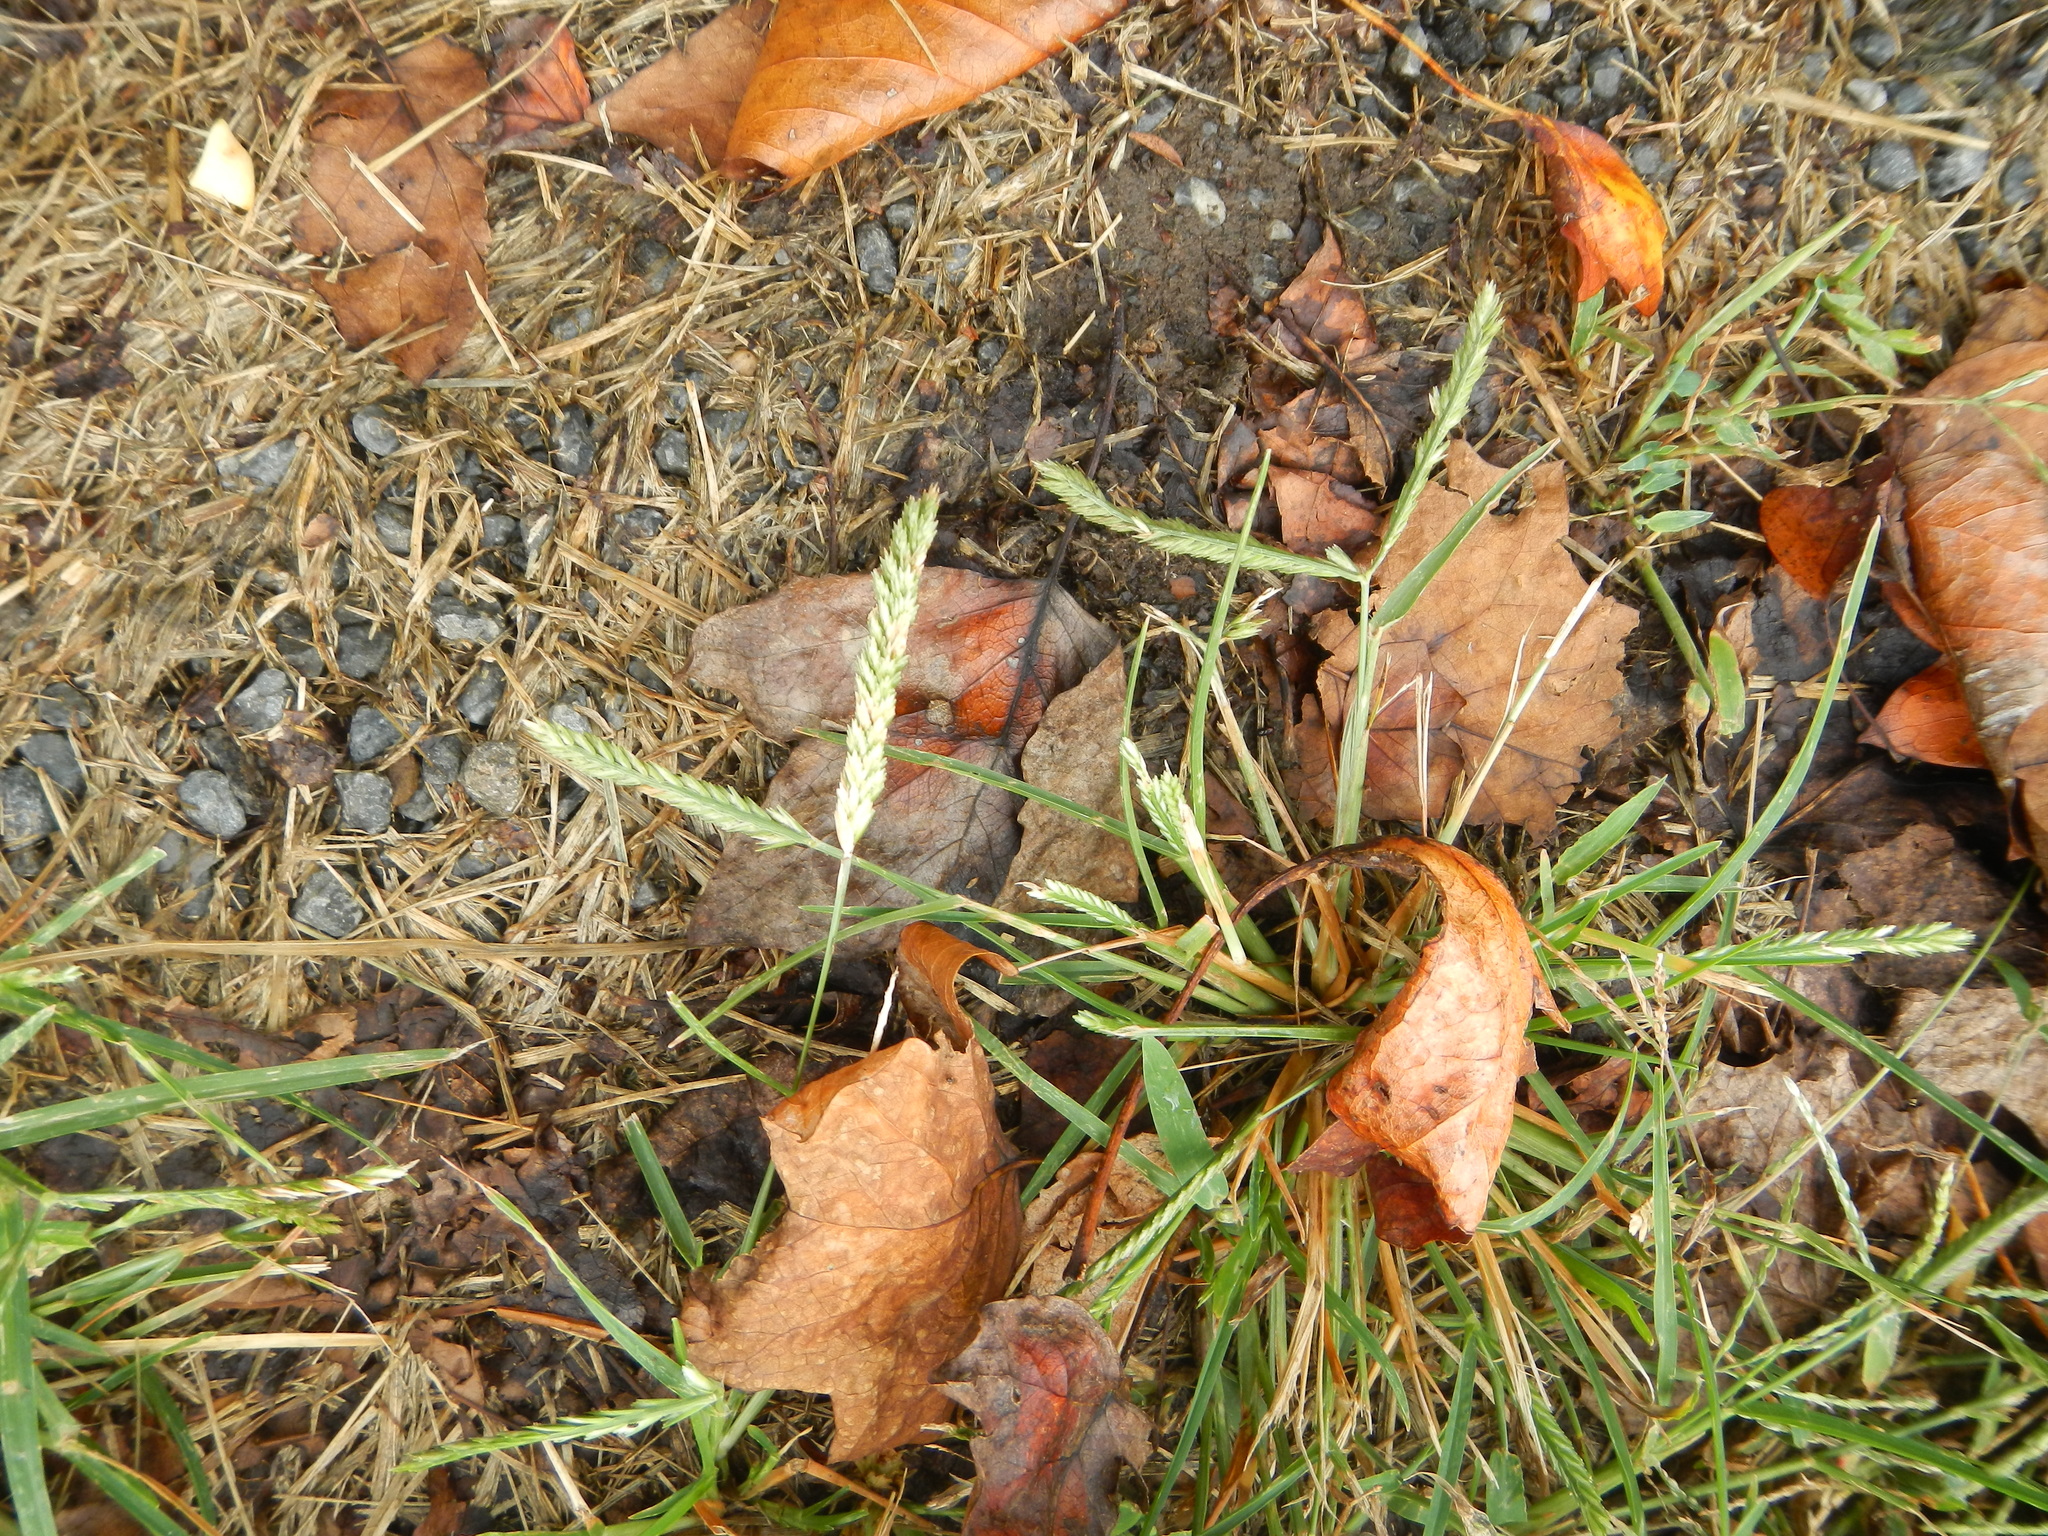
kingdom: Plantae
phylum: Tracheophyta
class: Liliopsida
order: Poales
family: Poaceae
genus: Eleusine
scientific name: Eleusine indica
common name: Yard-grass
